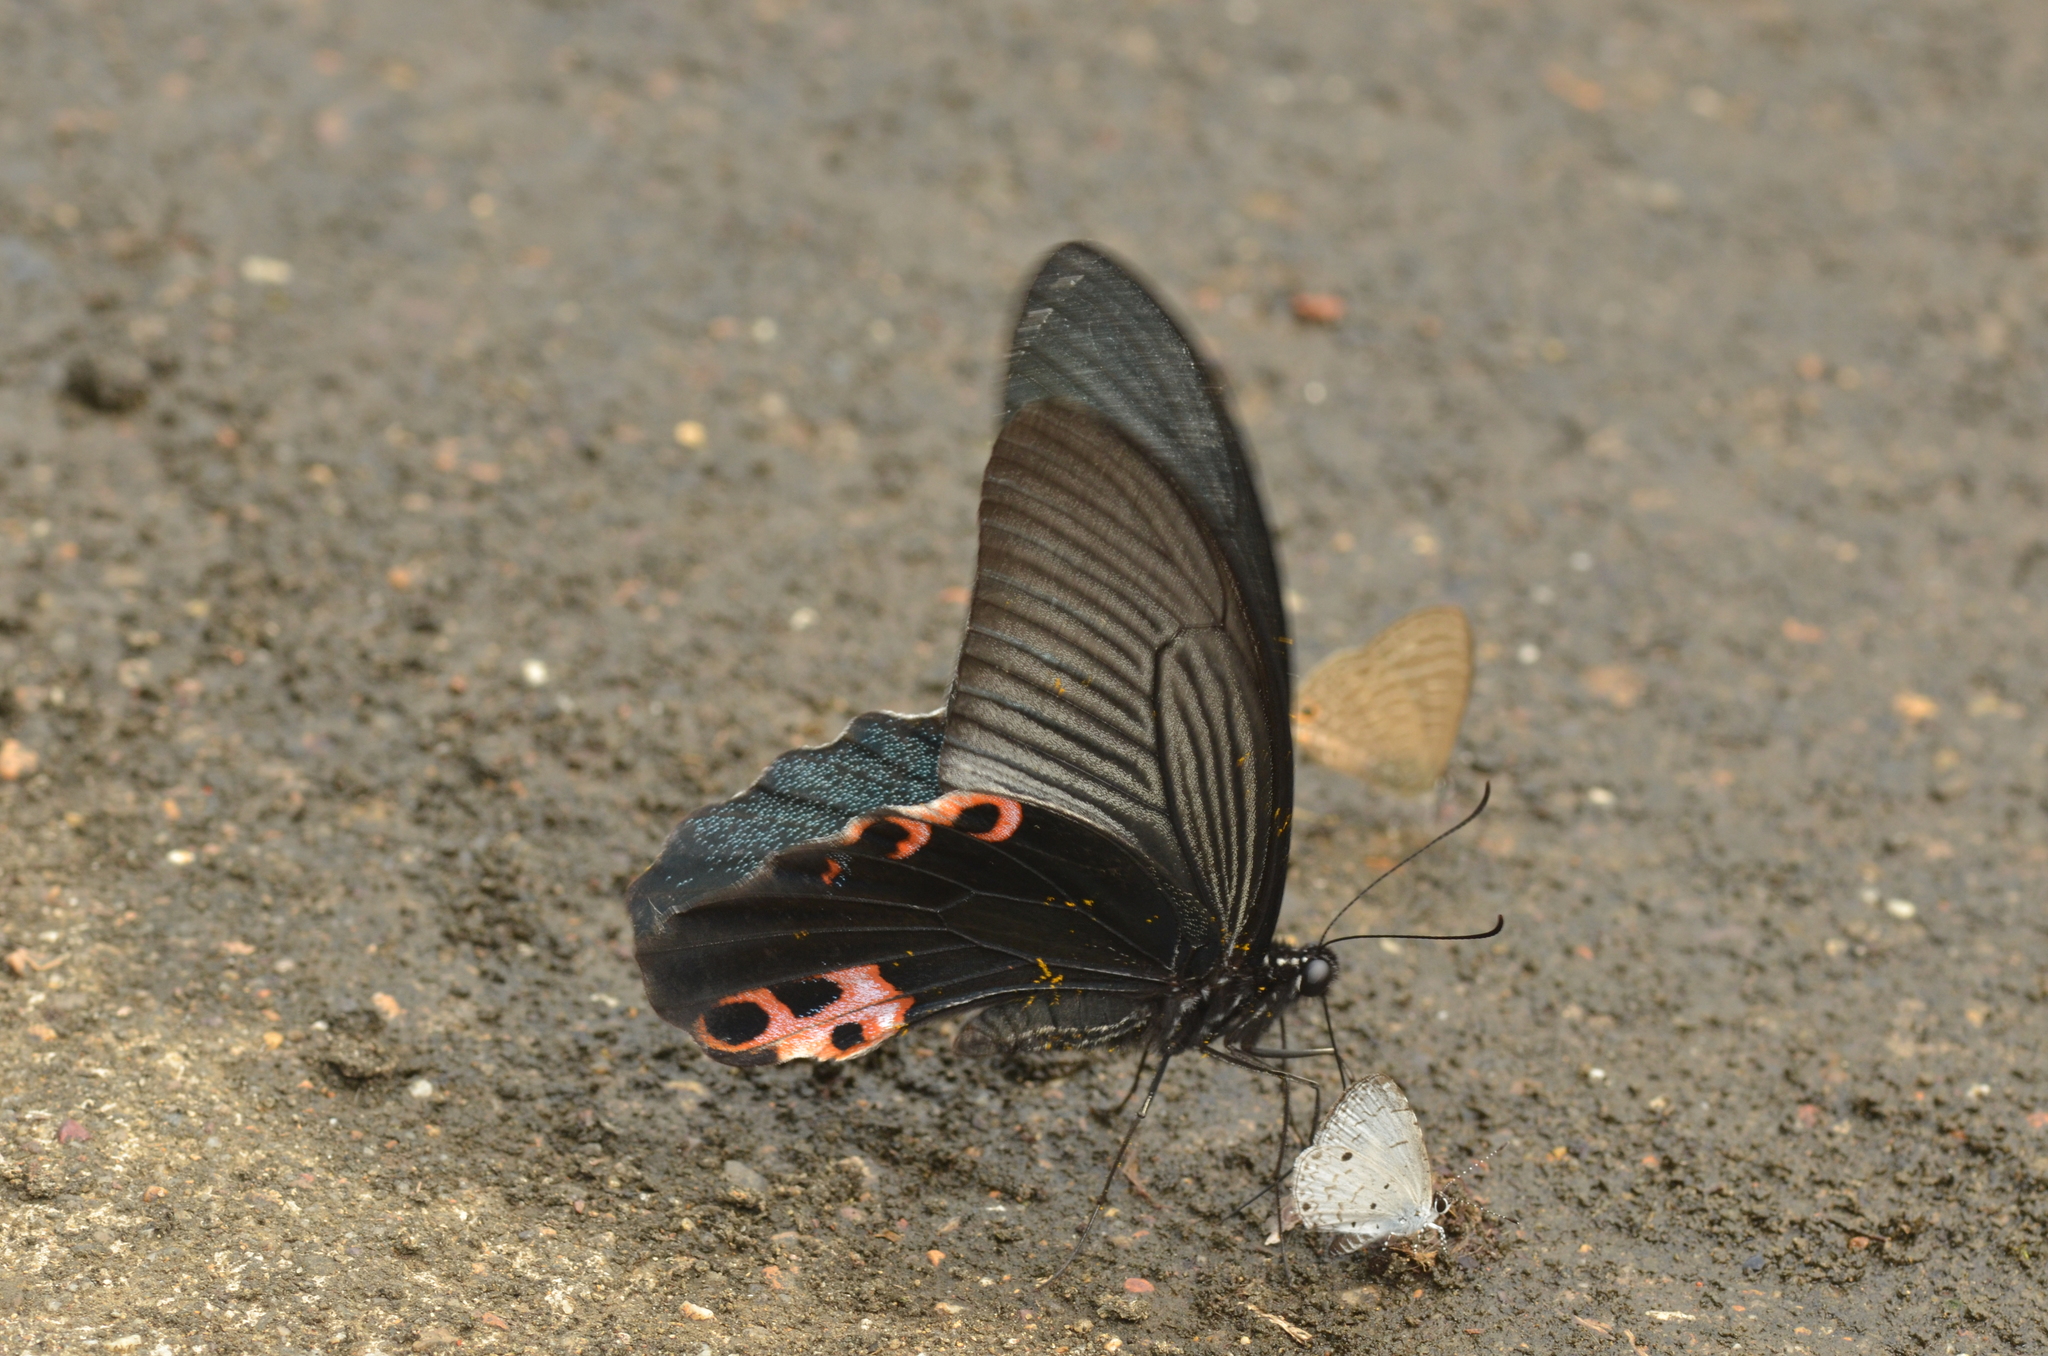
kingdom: Animalia
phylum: Arthropoda
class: Insecta
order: Lepidoptera
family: Papilionidae
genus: Papilio
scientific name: Papilio protenor
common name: Spangle
